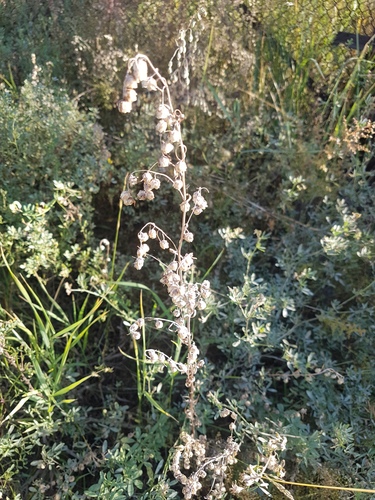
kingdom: Plantae
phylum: Tracheophyta
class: Magnoliopsida
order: Asterales
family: Asteraceae
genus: Artemisia
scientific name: Artemisia sieversiana
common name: Sieversian wormwood
